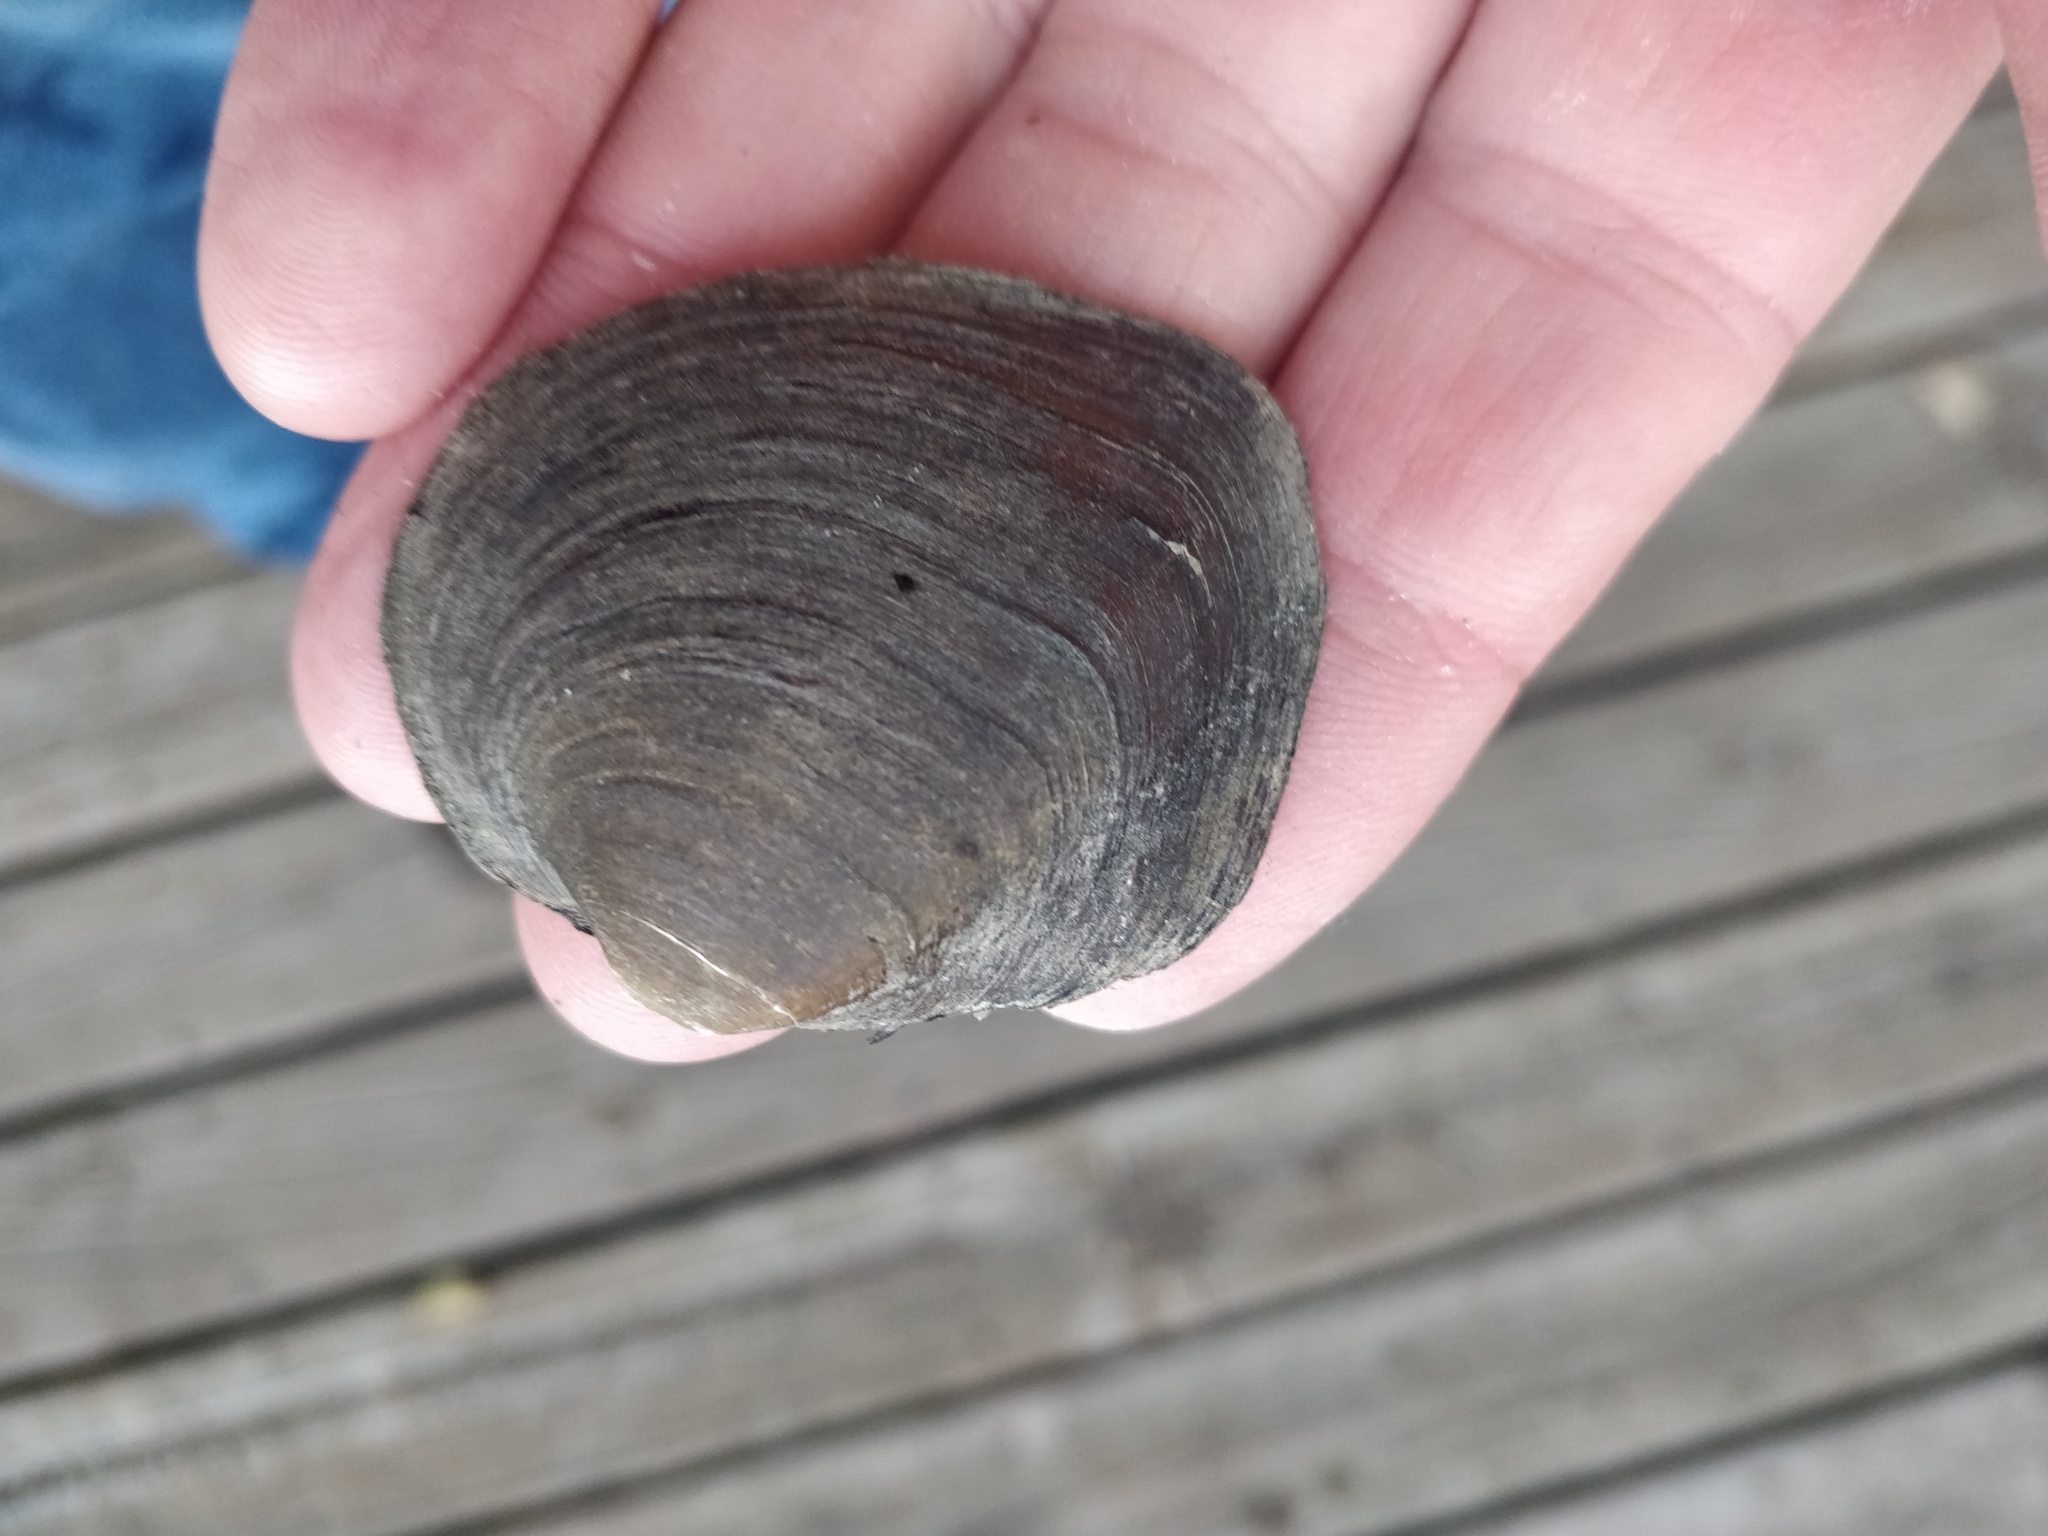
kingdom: Animalia
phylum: Mollusca
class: Bivalvia
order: Unionida
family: Unionidae
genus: Cyclonaias
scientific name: Cyclonaias pustulosa
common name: Pimpleback
